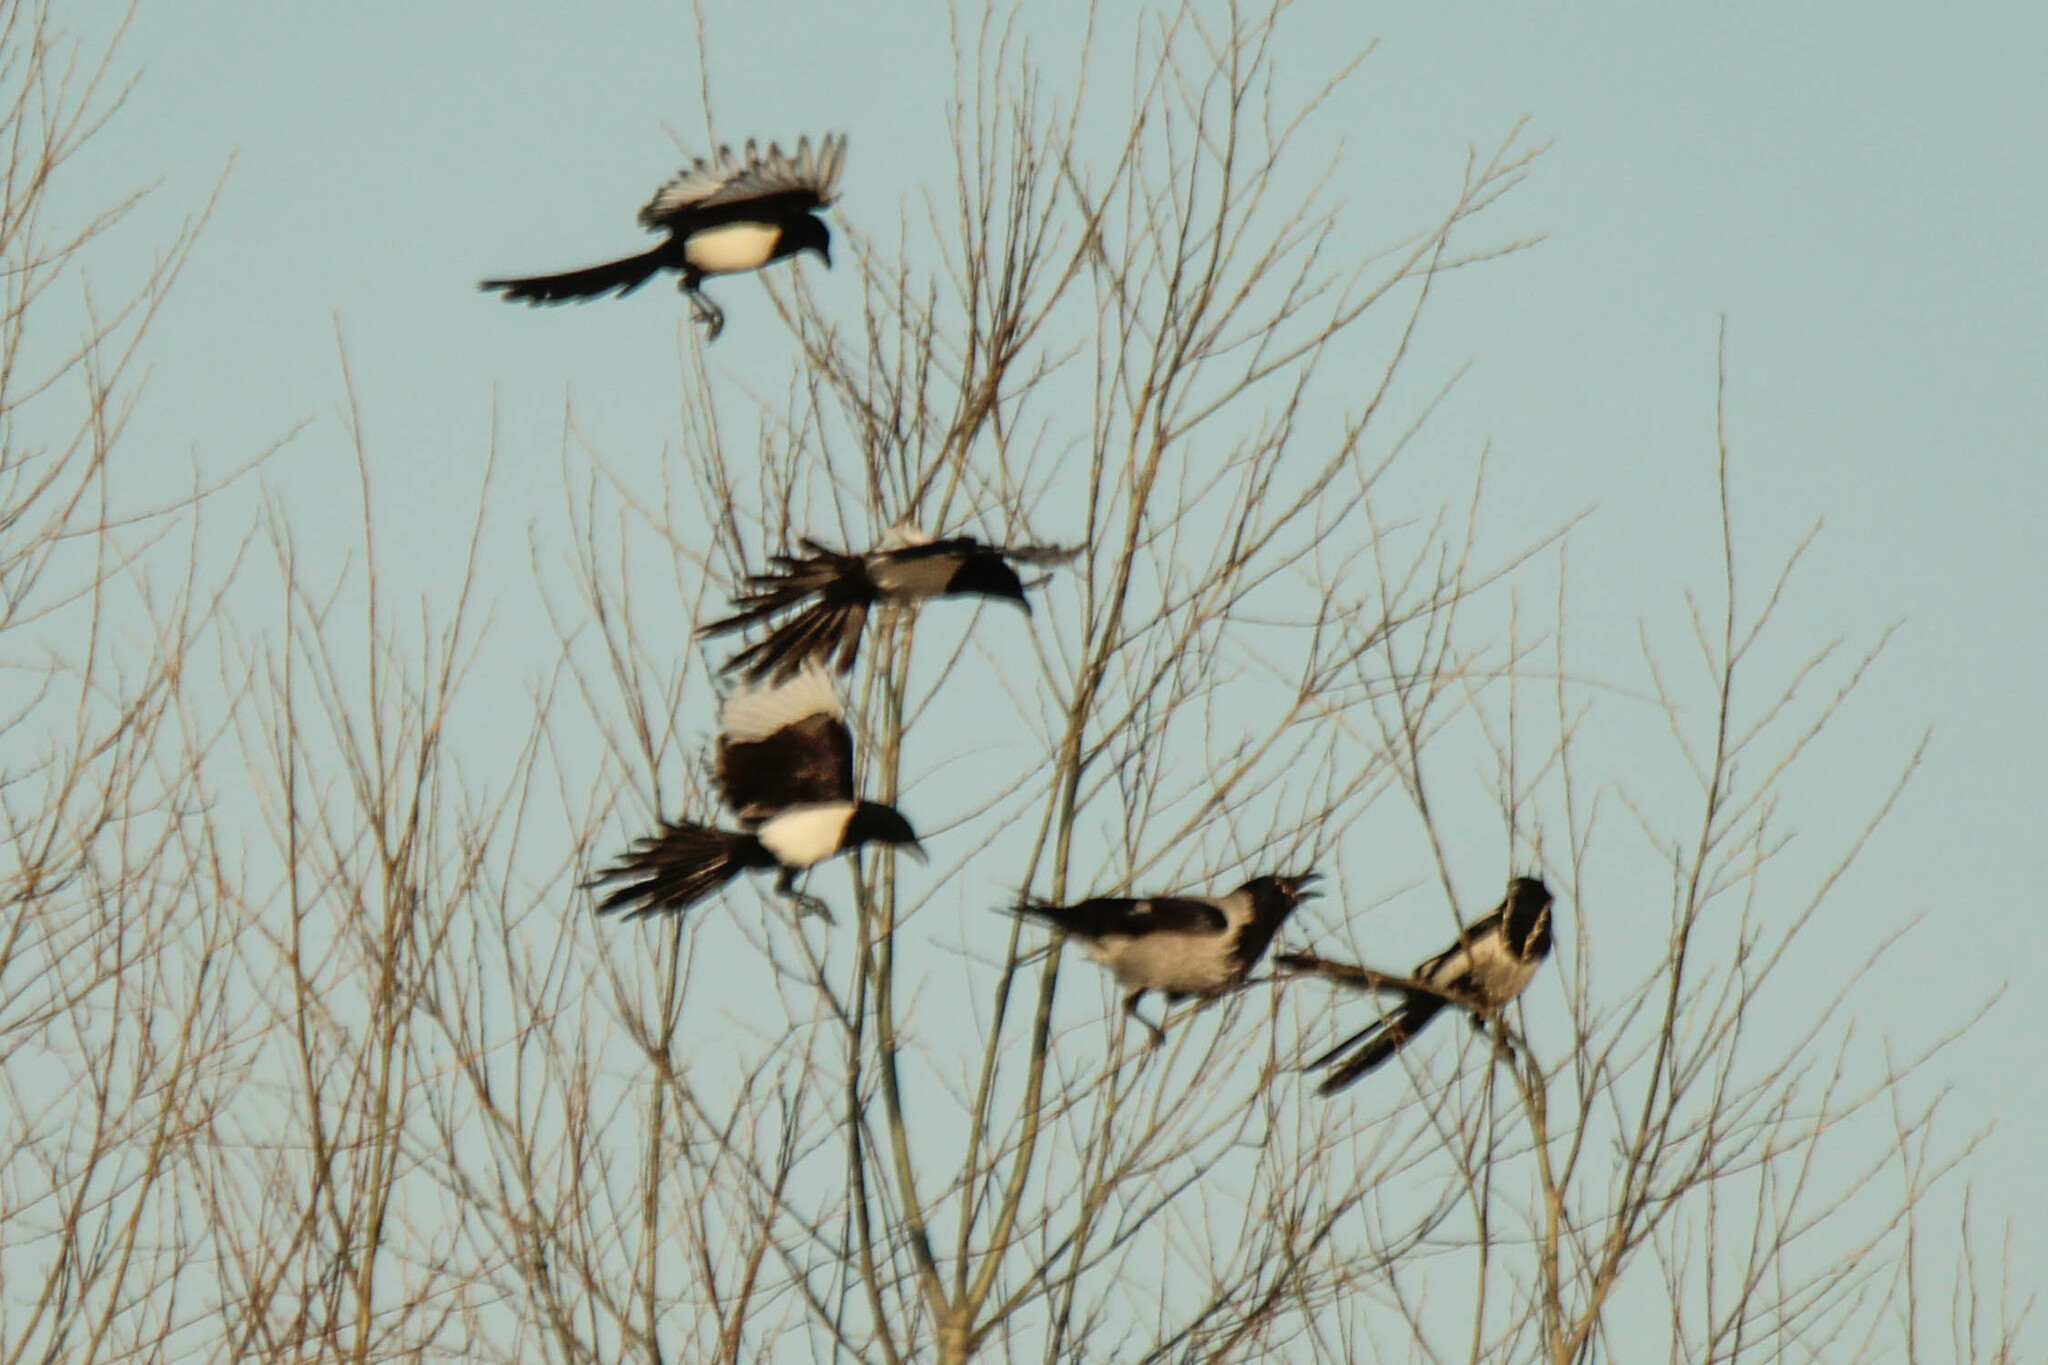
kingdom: Animalia
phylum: Chordata
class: Aves
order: Passeriformes
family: Corvidae
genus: Pica
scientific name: Pica pica
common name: Eurasian magpie
